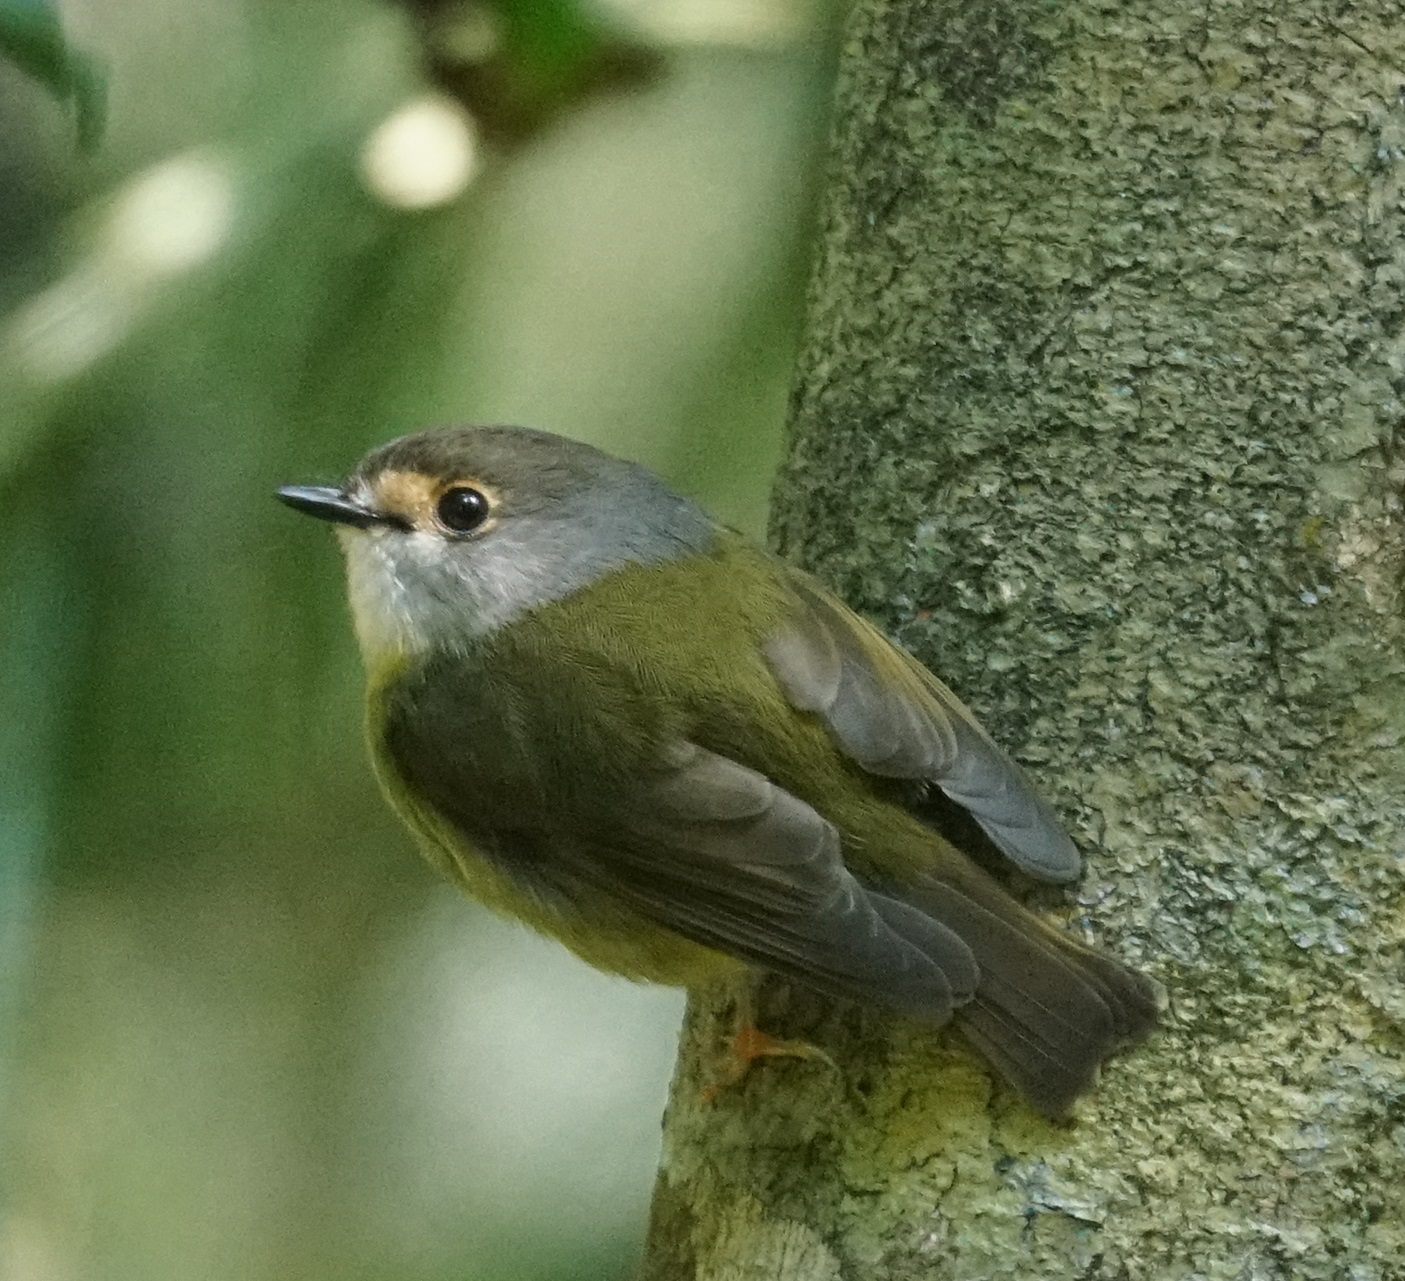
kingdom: Animalia
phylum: Chordata
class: Aves
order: Passeriformes
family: Petroicidae
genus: Eopsaltria
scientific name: Eopsaltria
